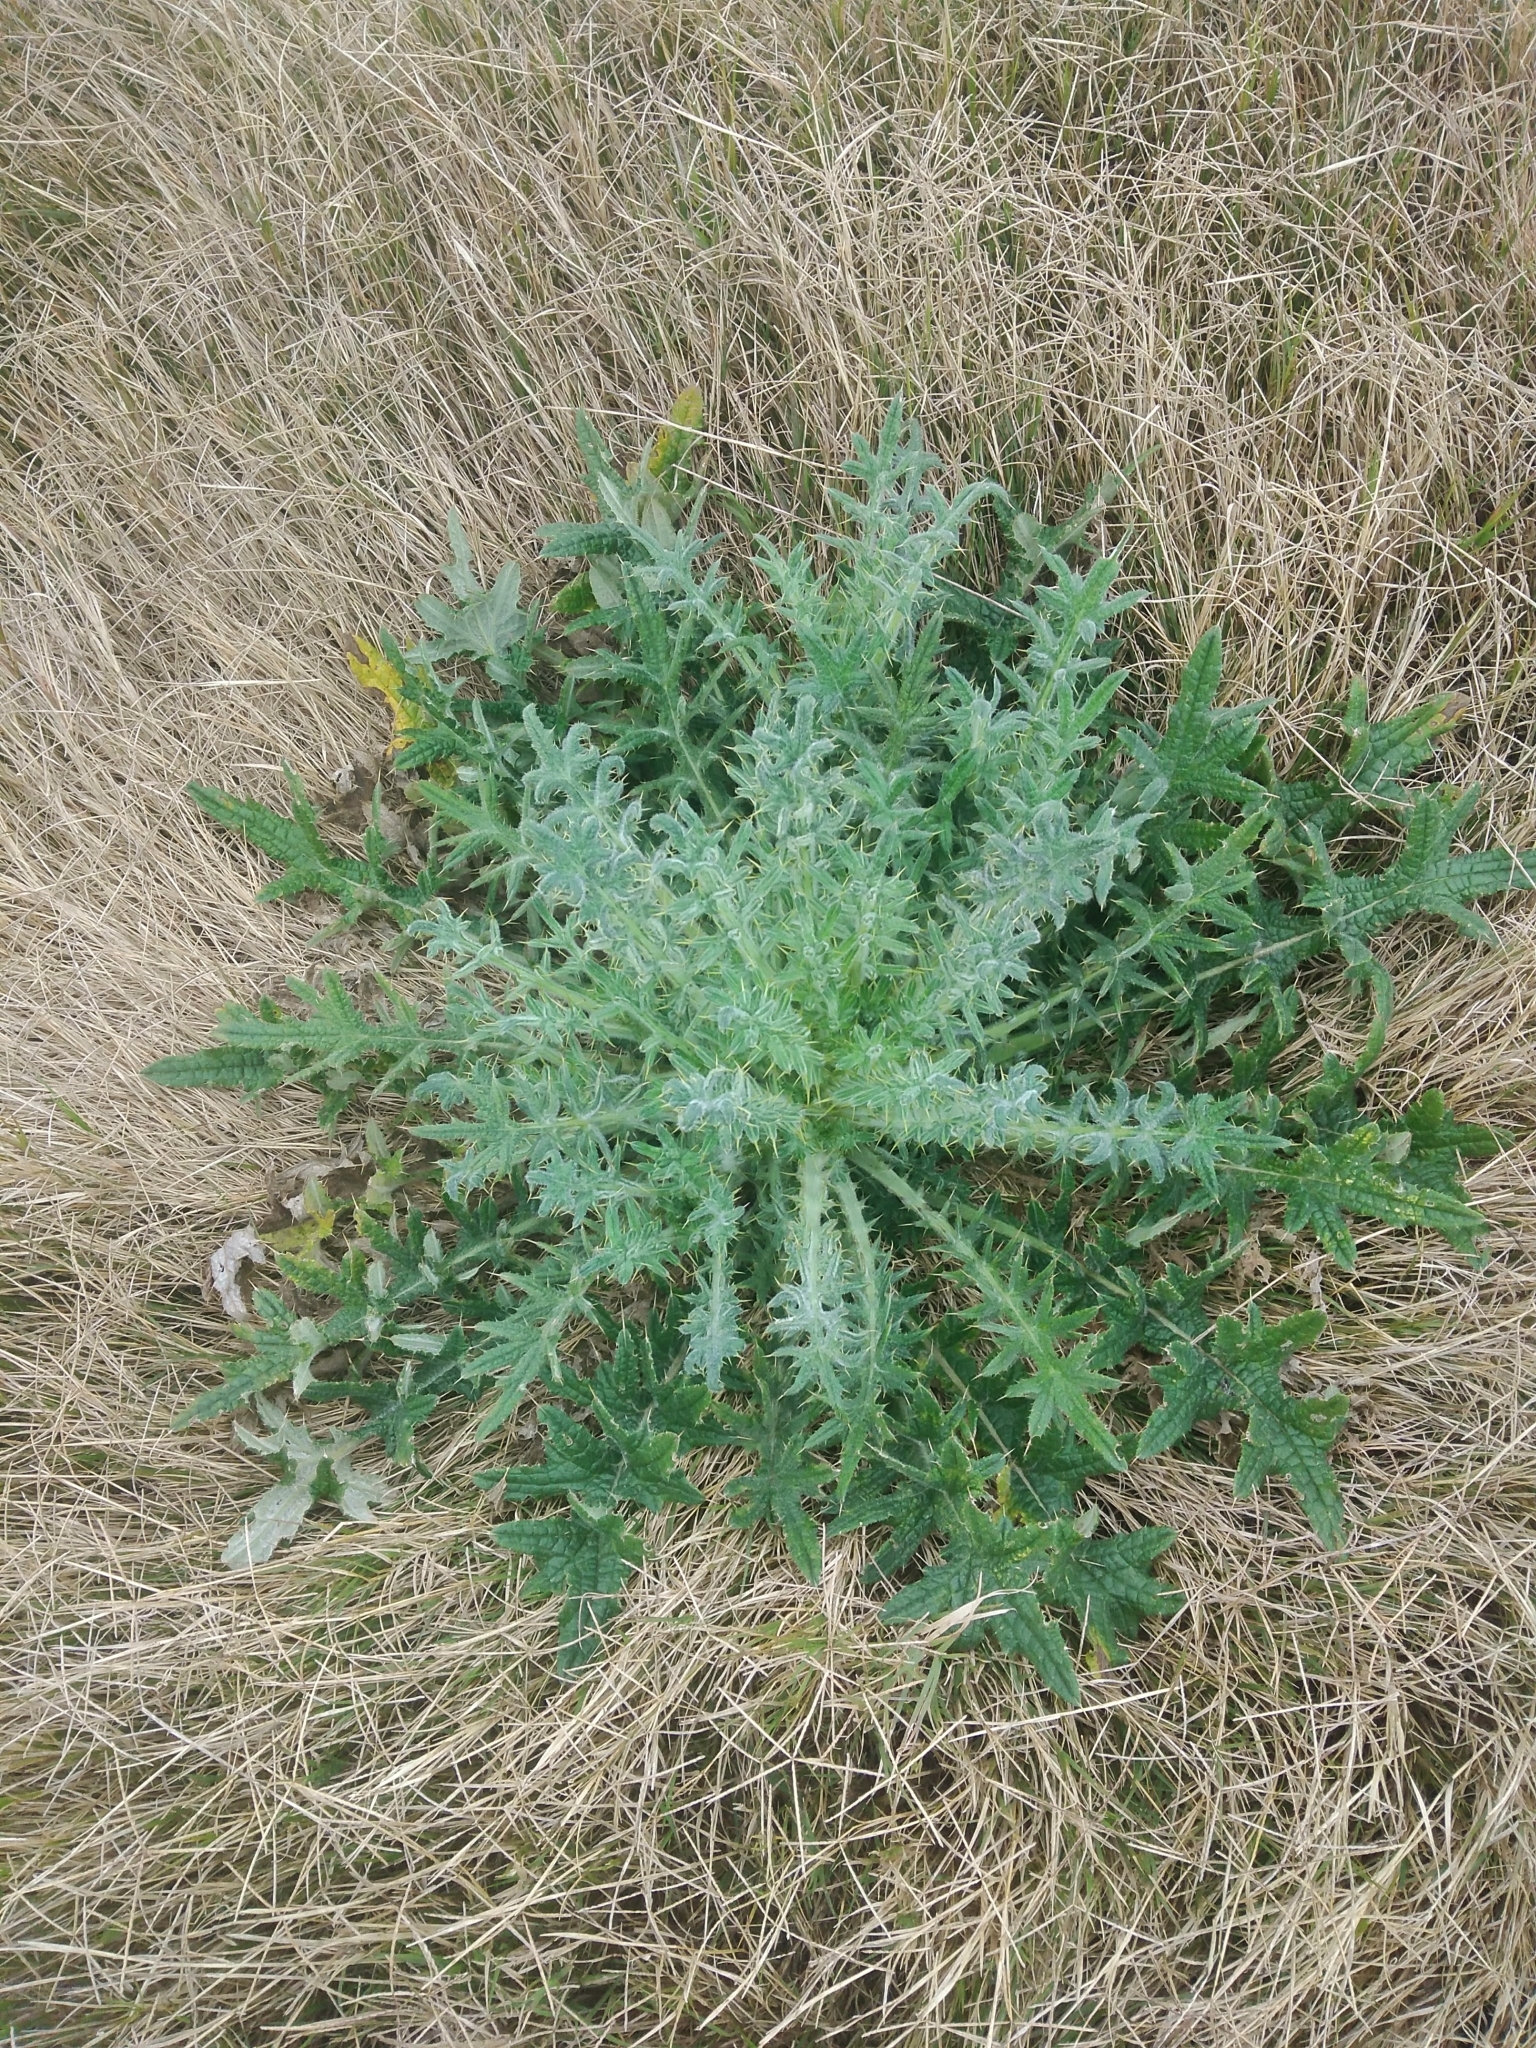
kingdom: Plantae
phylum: Tracheophyta
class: Magnoliopsida
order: Asterales
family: Asteraceae
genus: Cirsium
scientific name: Cirsium vulgare
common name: Bull thistle
